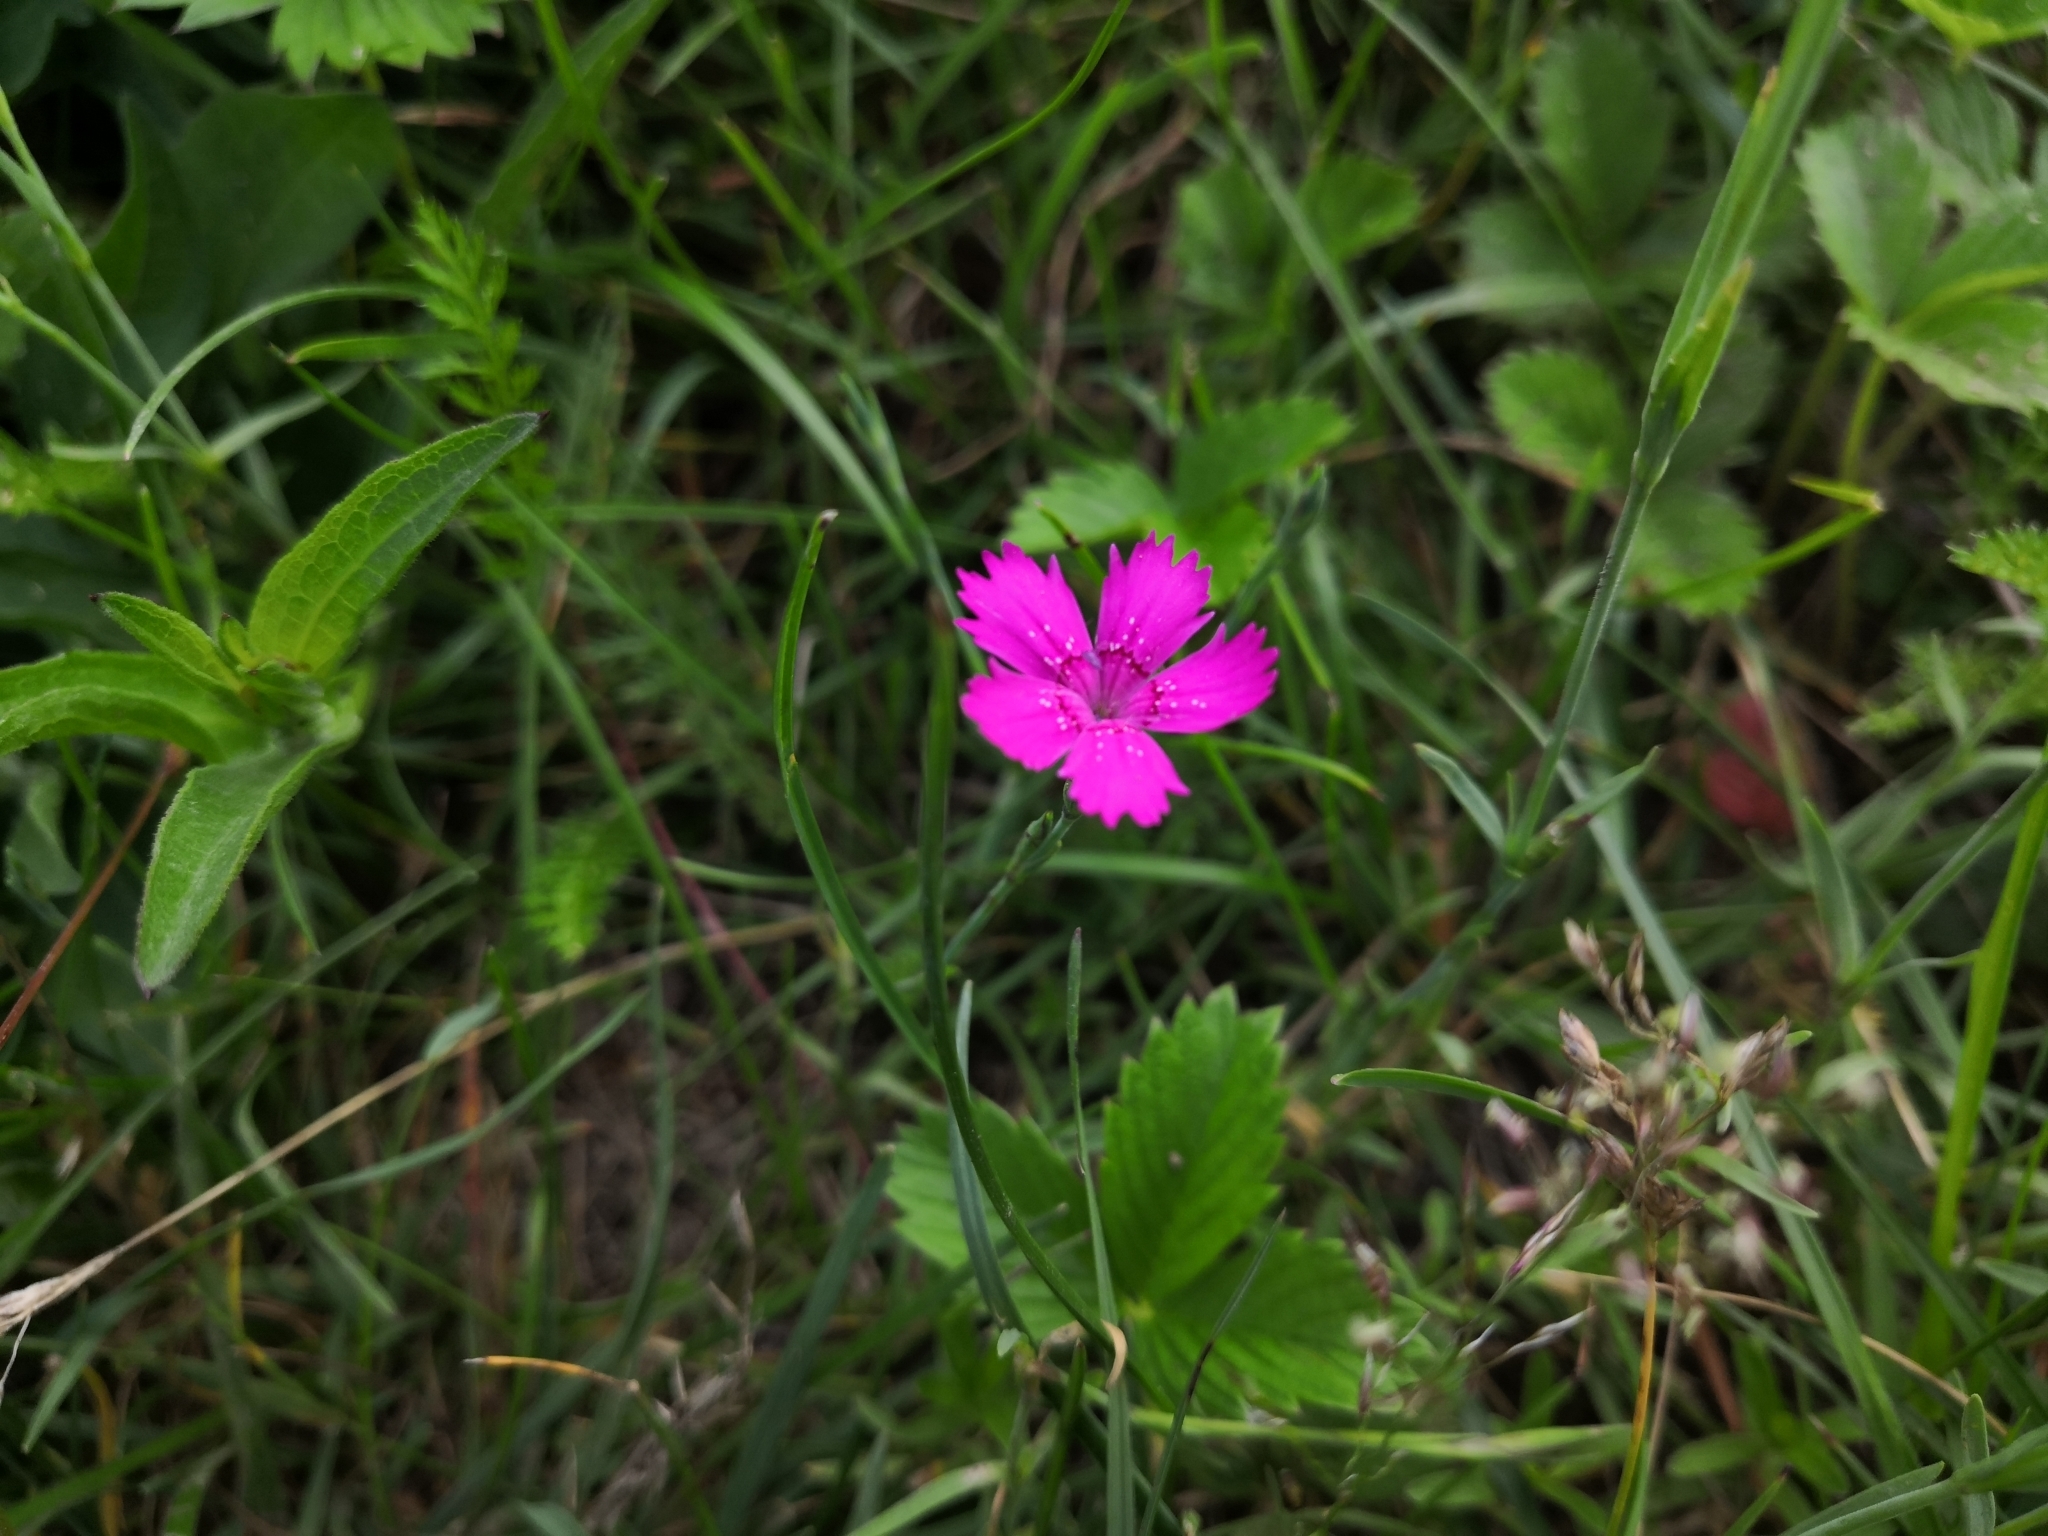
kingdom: Plantae
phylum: Tracheophyta
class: Magnoliopsida
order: Caryophyllales
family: Caryophyllaceae
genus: Dianthus
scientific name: Dianthus deltoides
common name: Maiden pink
